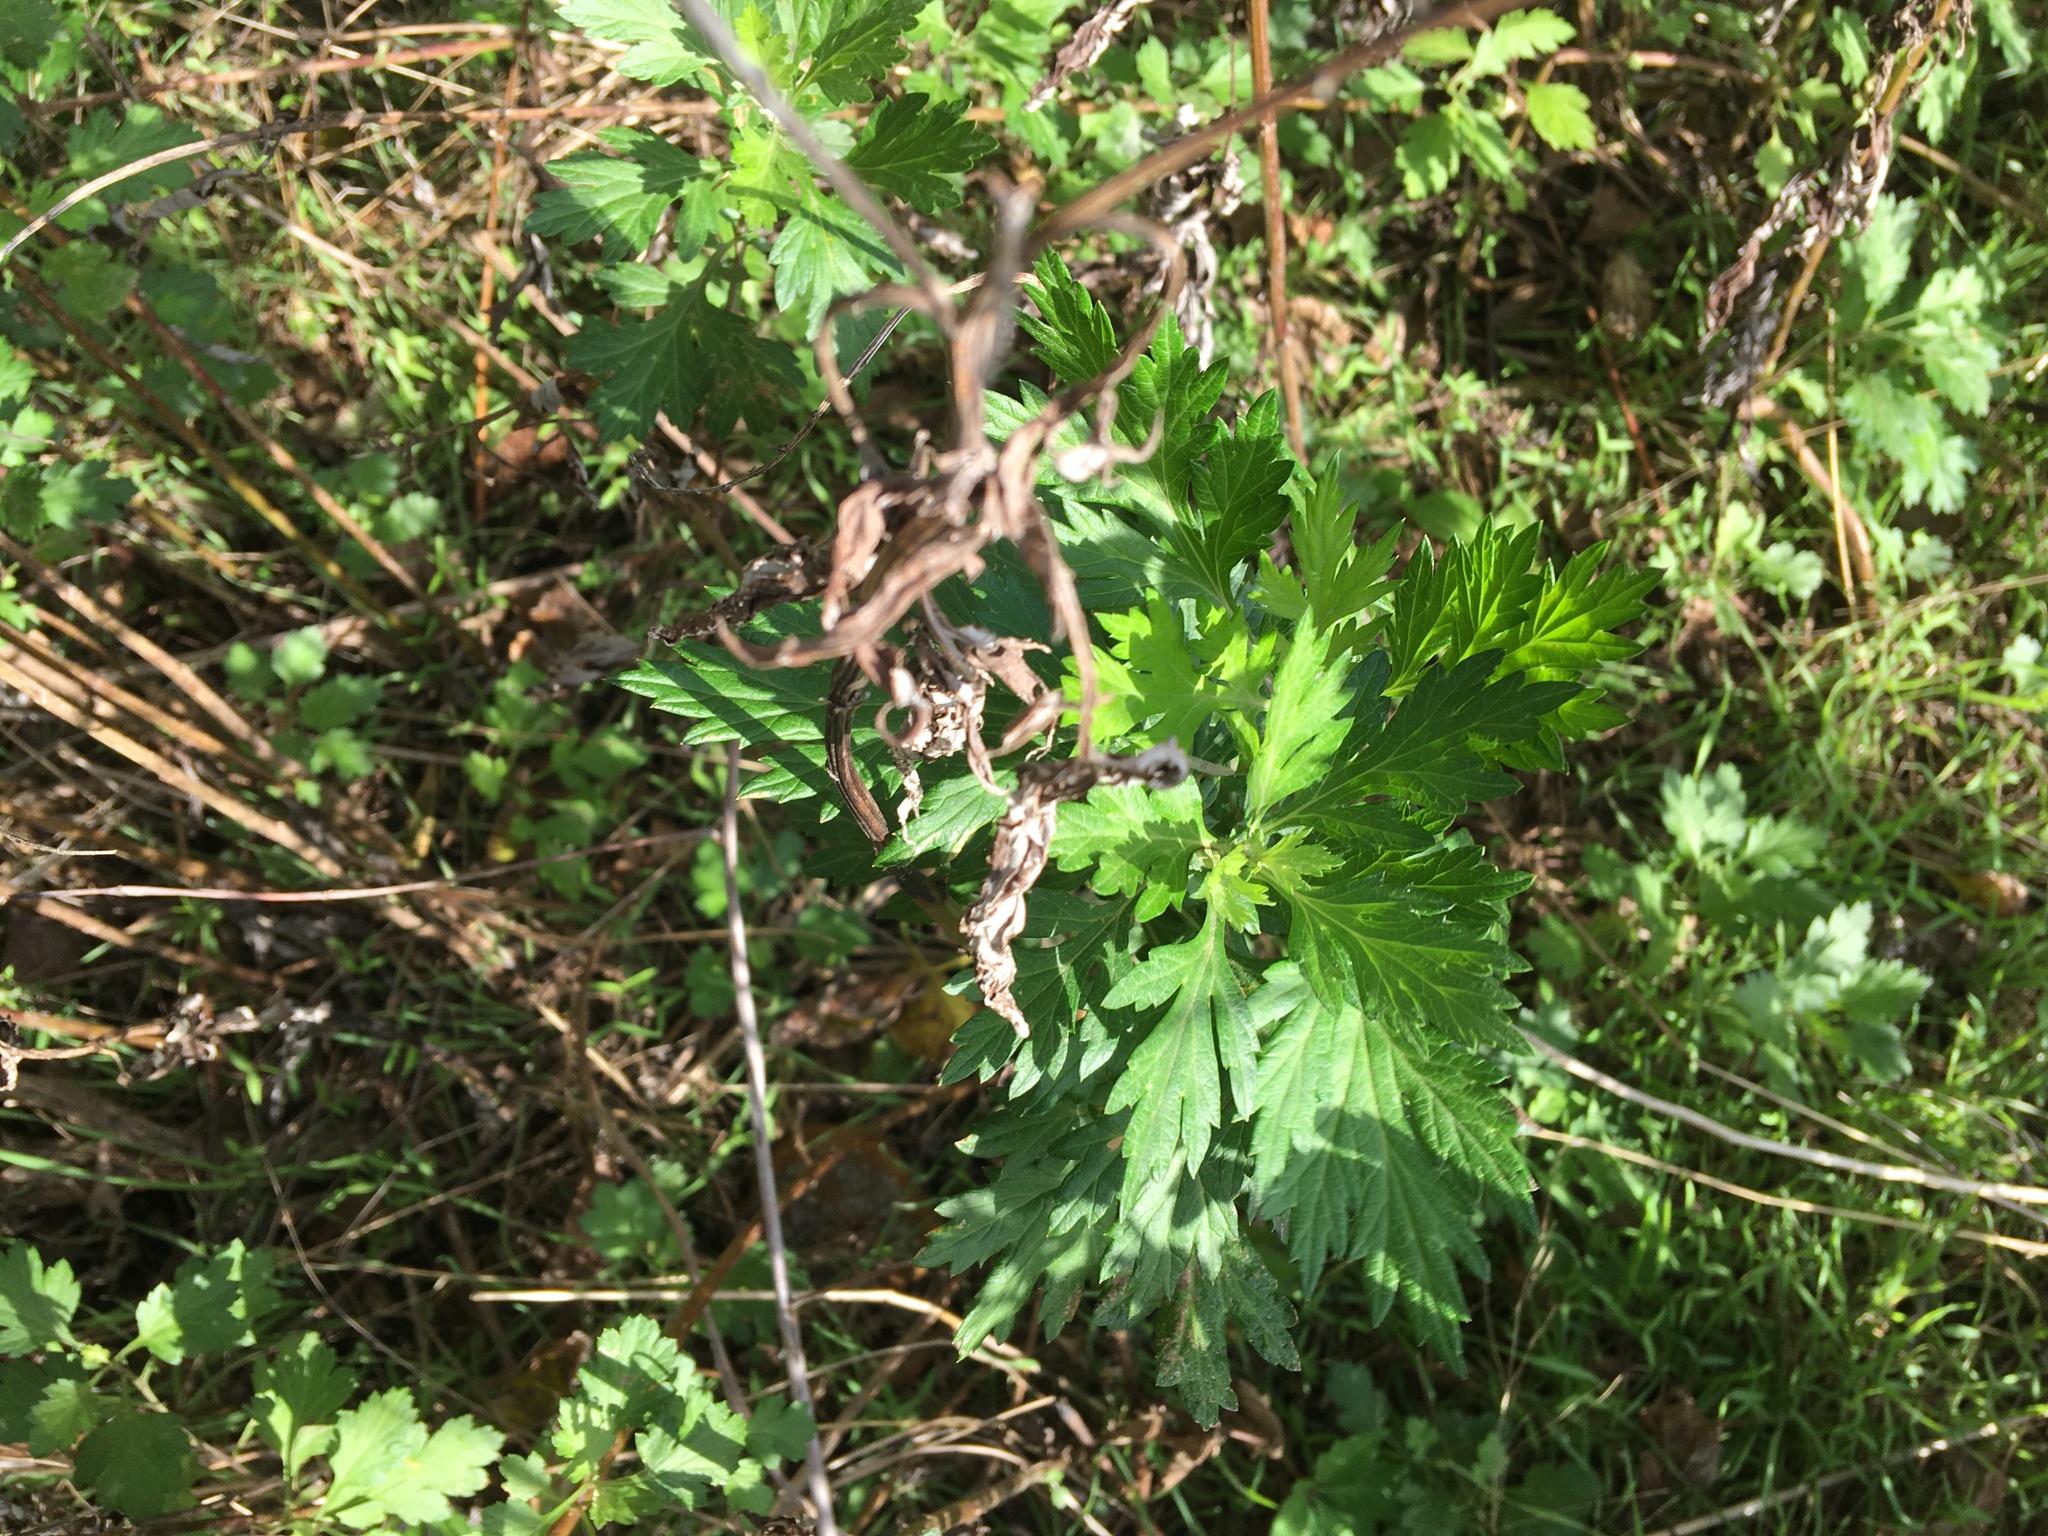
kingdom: Plantae
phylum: Tracheophyta
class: Magnoliopsida
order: Asterales
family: Asteraceae
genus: Artemisia
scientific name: Artemisia vulgaris
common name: Mugwort
